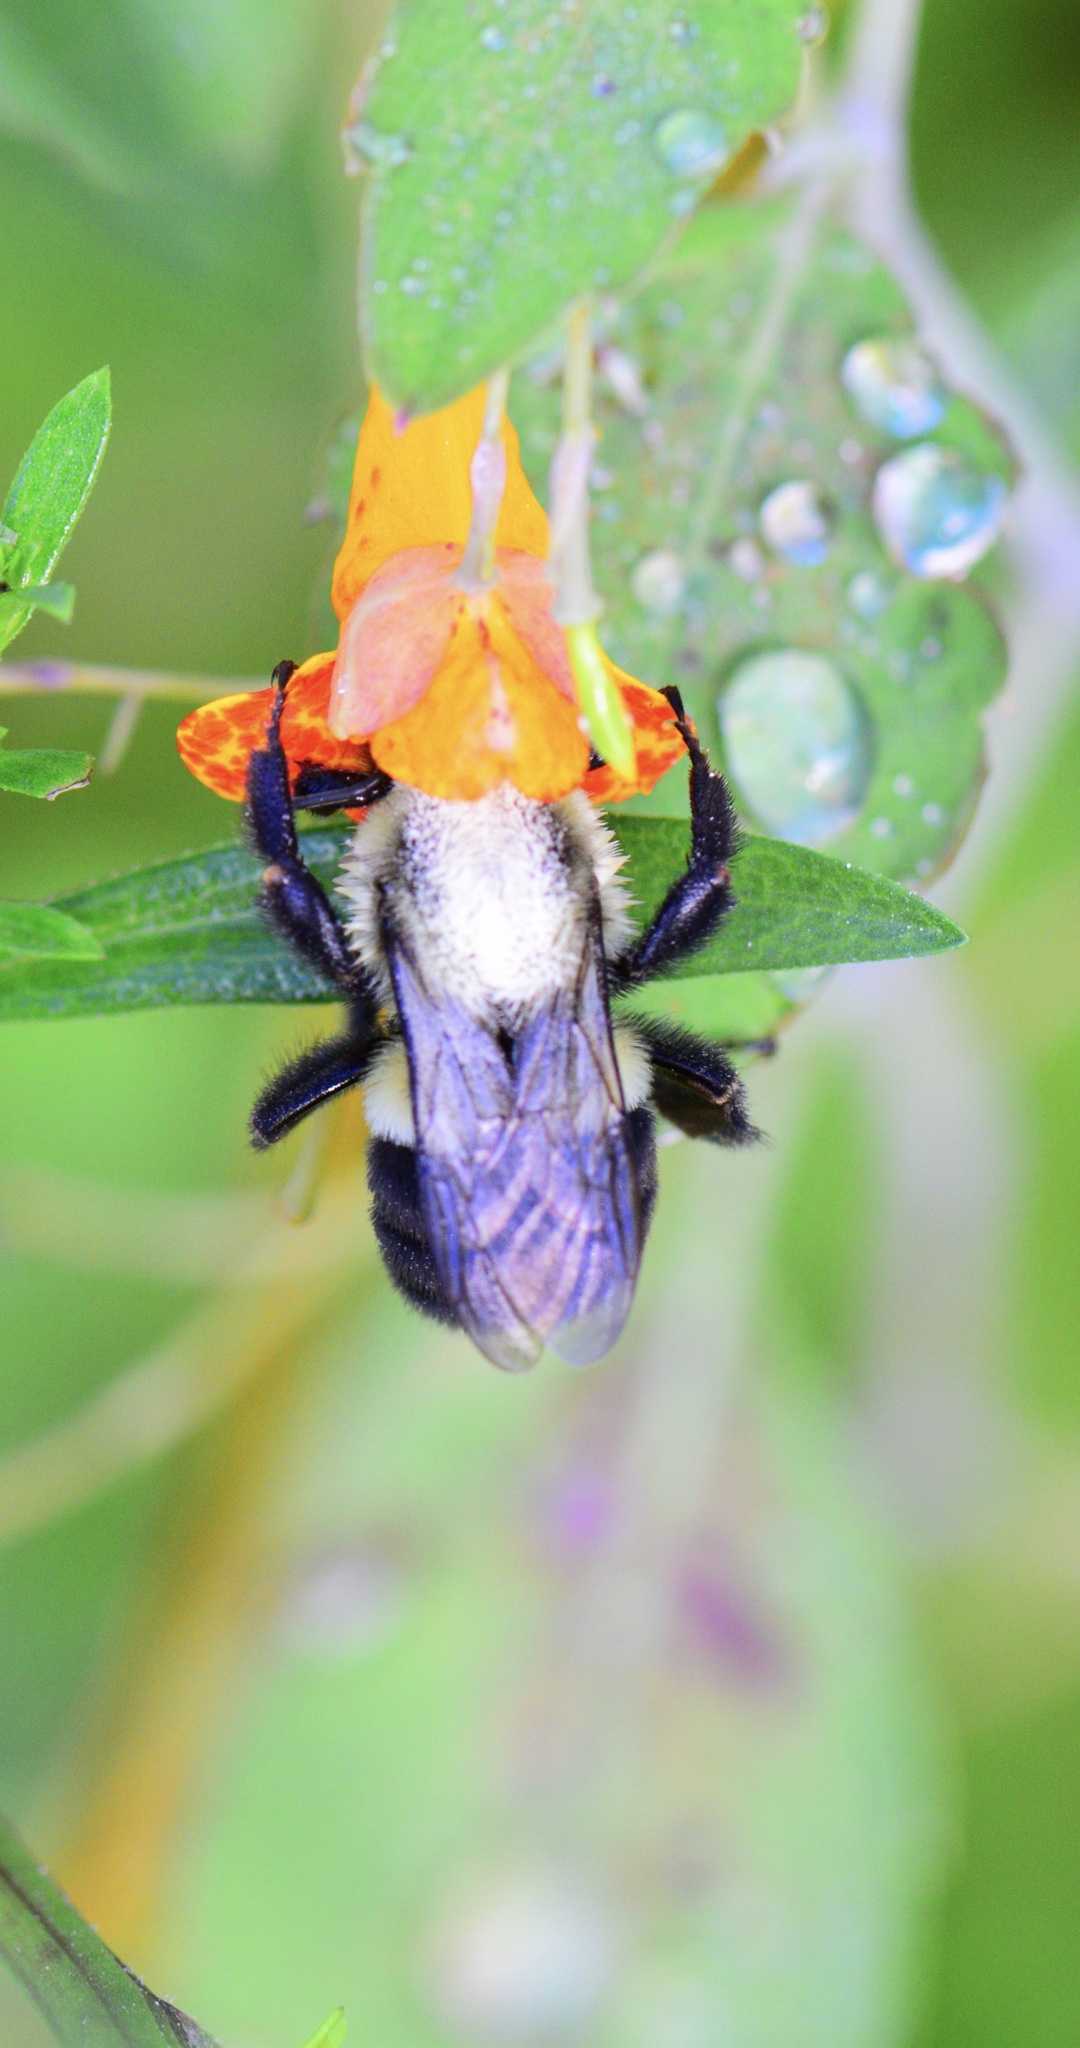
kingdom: Animalia
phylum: Arthropoda
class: Insecta
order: Hymenoptera
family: Apidae
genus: Bombus
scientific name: Bombus impatiens
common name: Common eastern bumble bee
